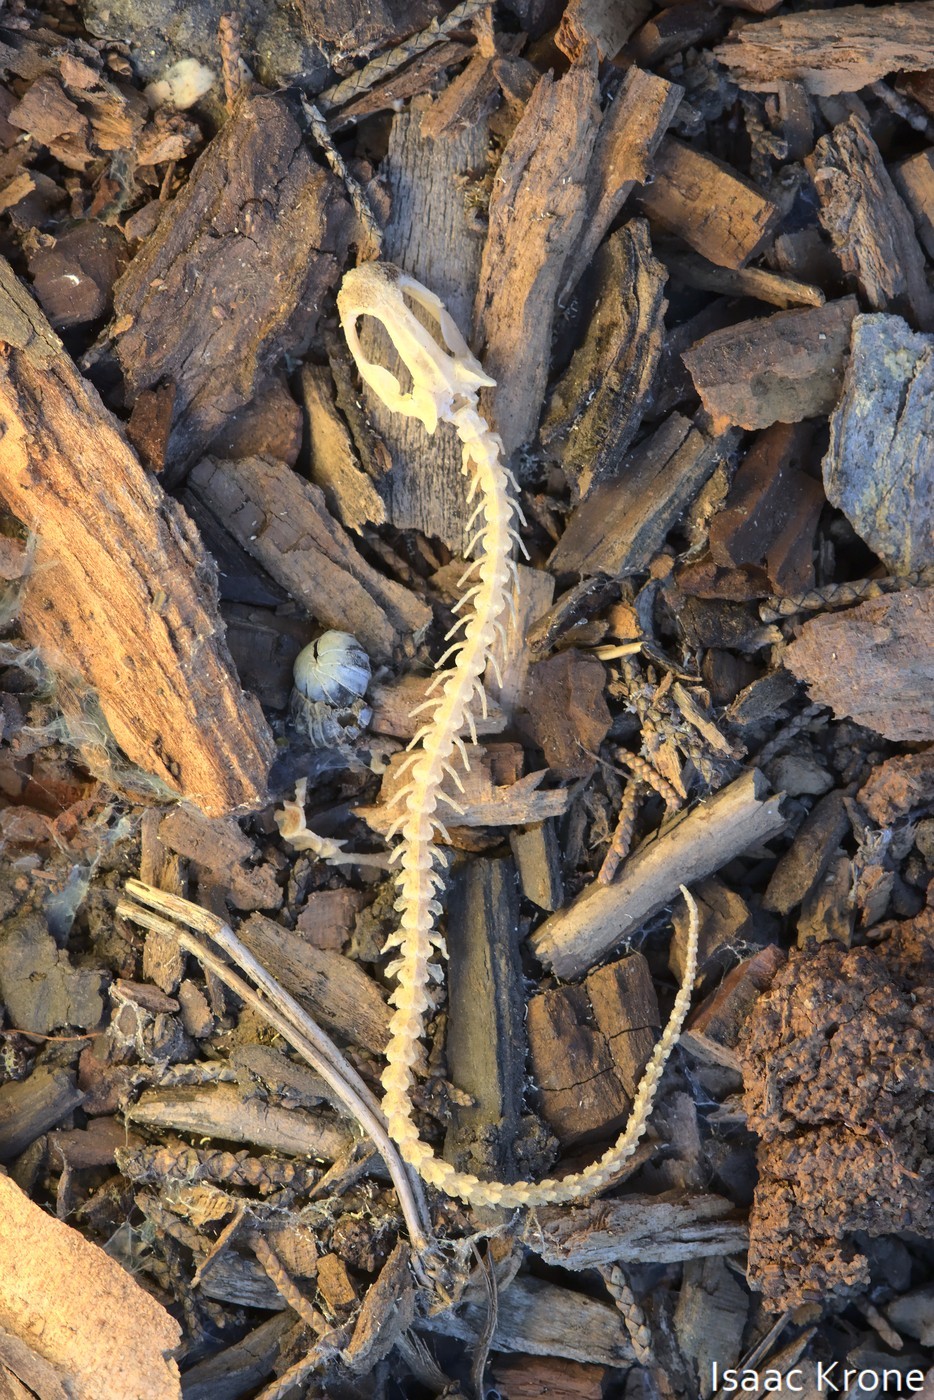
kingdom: Animalia
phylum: Chordata
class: Amphibia
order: Caudata
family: Plethodontidae
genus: Aneides
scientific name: Aneides lugubris
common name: Arboreal salamander
